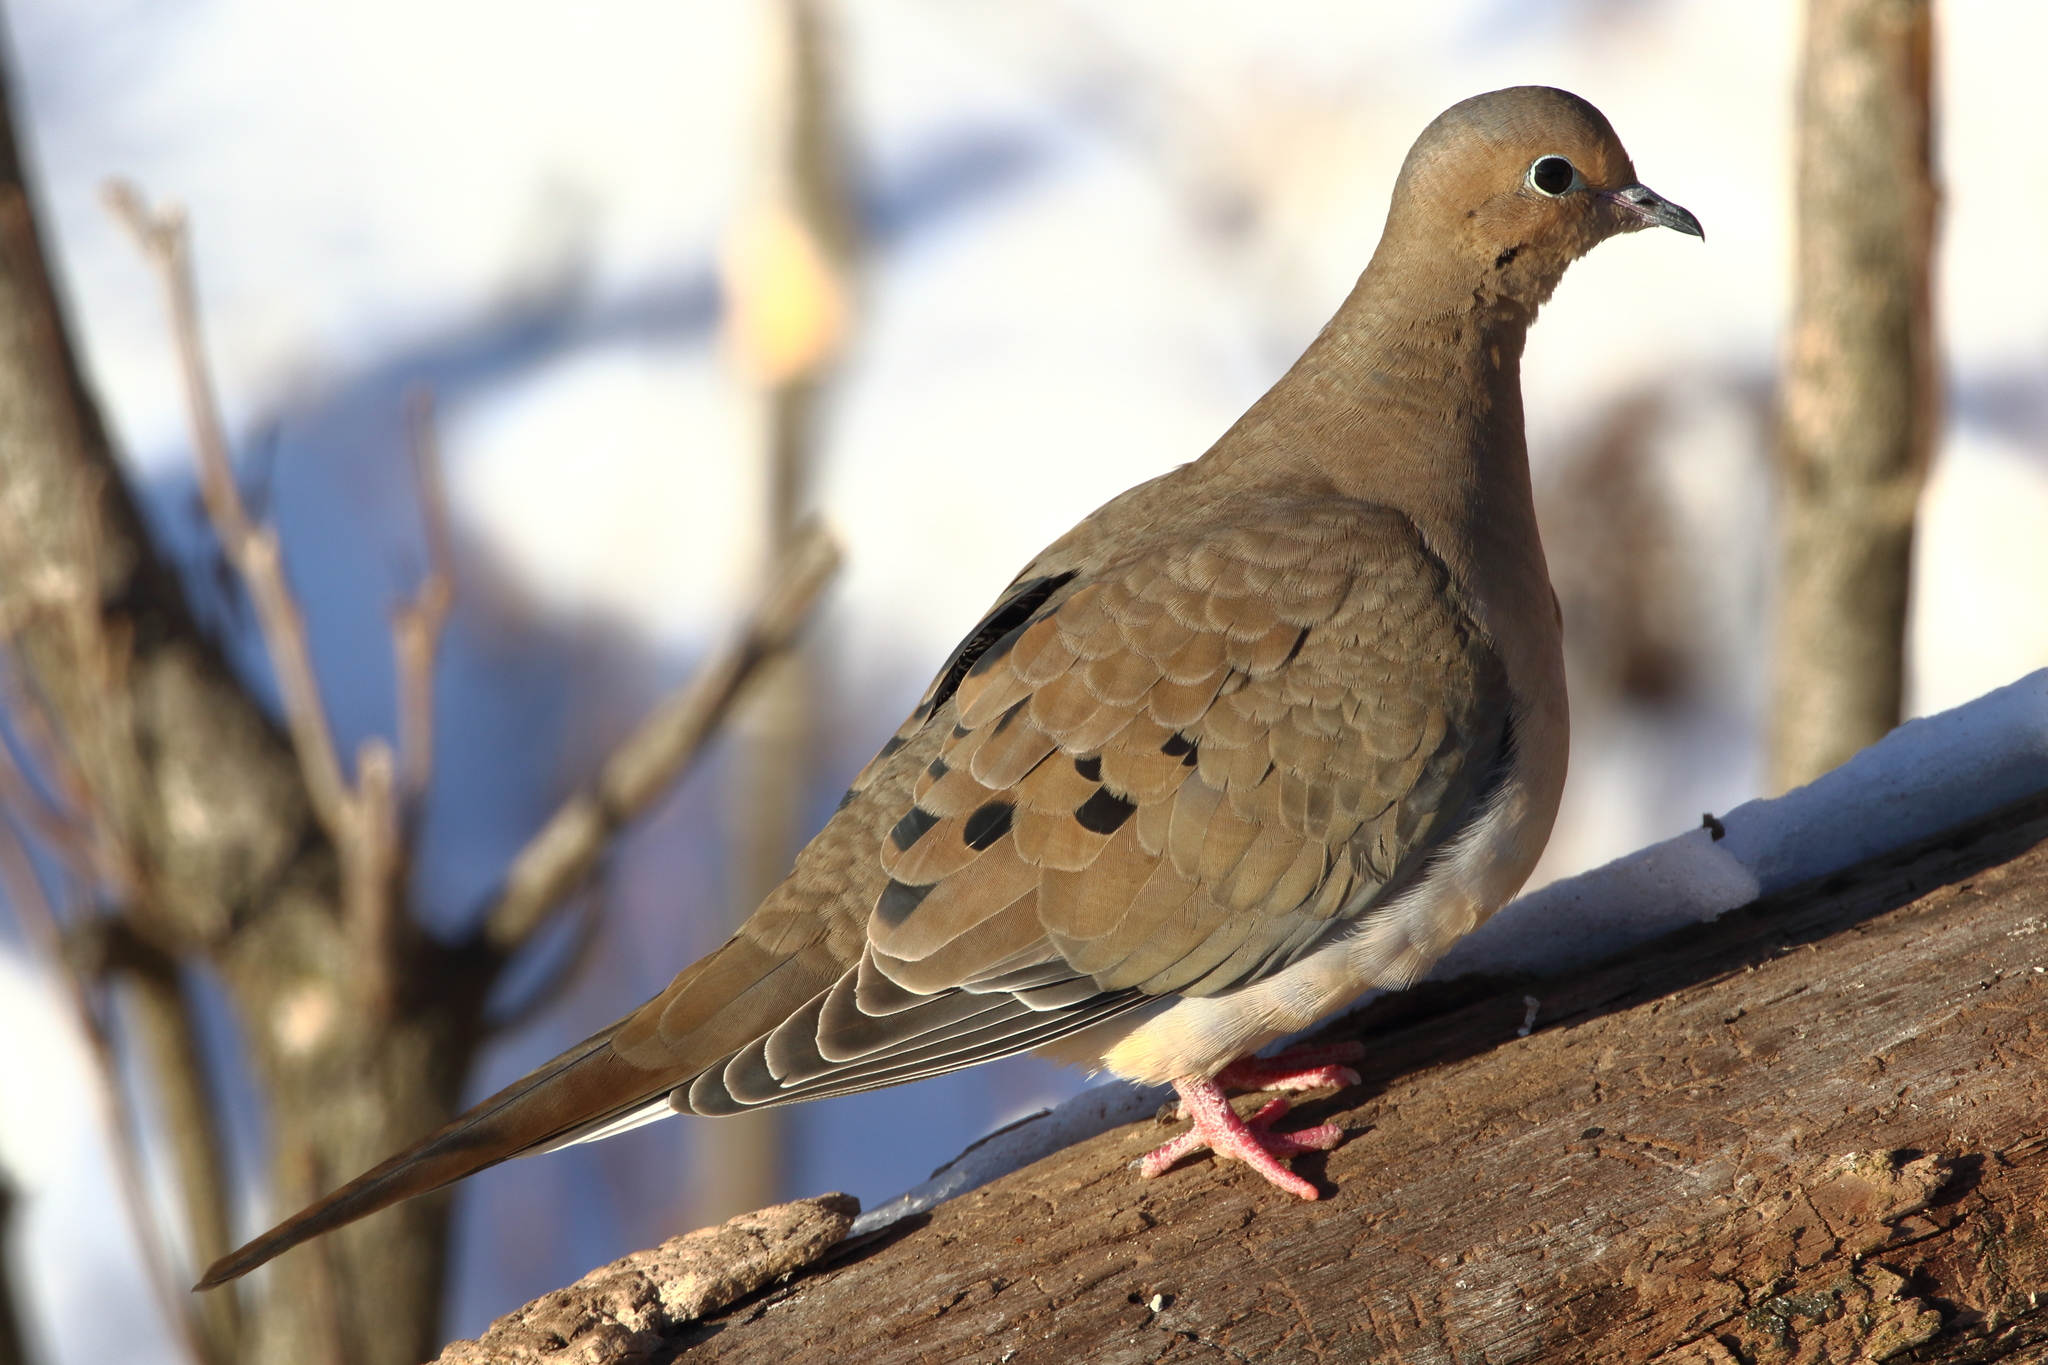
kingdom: Animalia
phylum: Chordata
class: Aves
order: Columbiformes
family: Columbidae
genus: Zenaida
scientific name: Zenaida macroura
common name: Mourning dove
